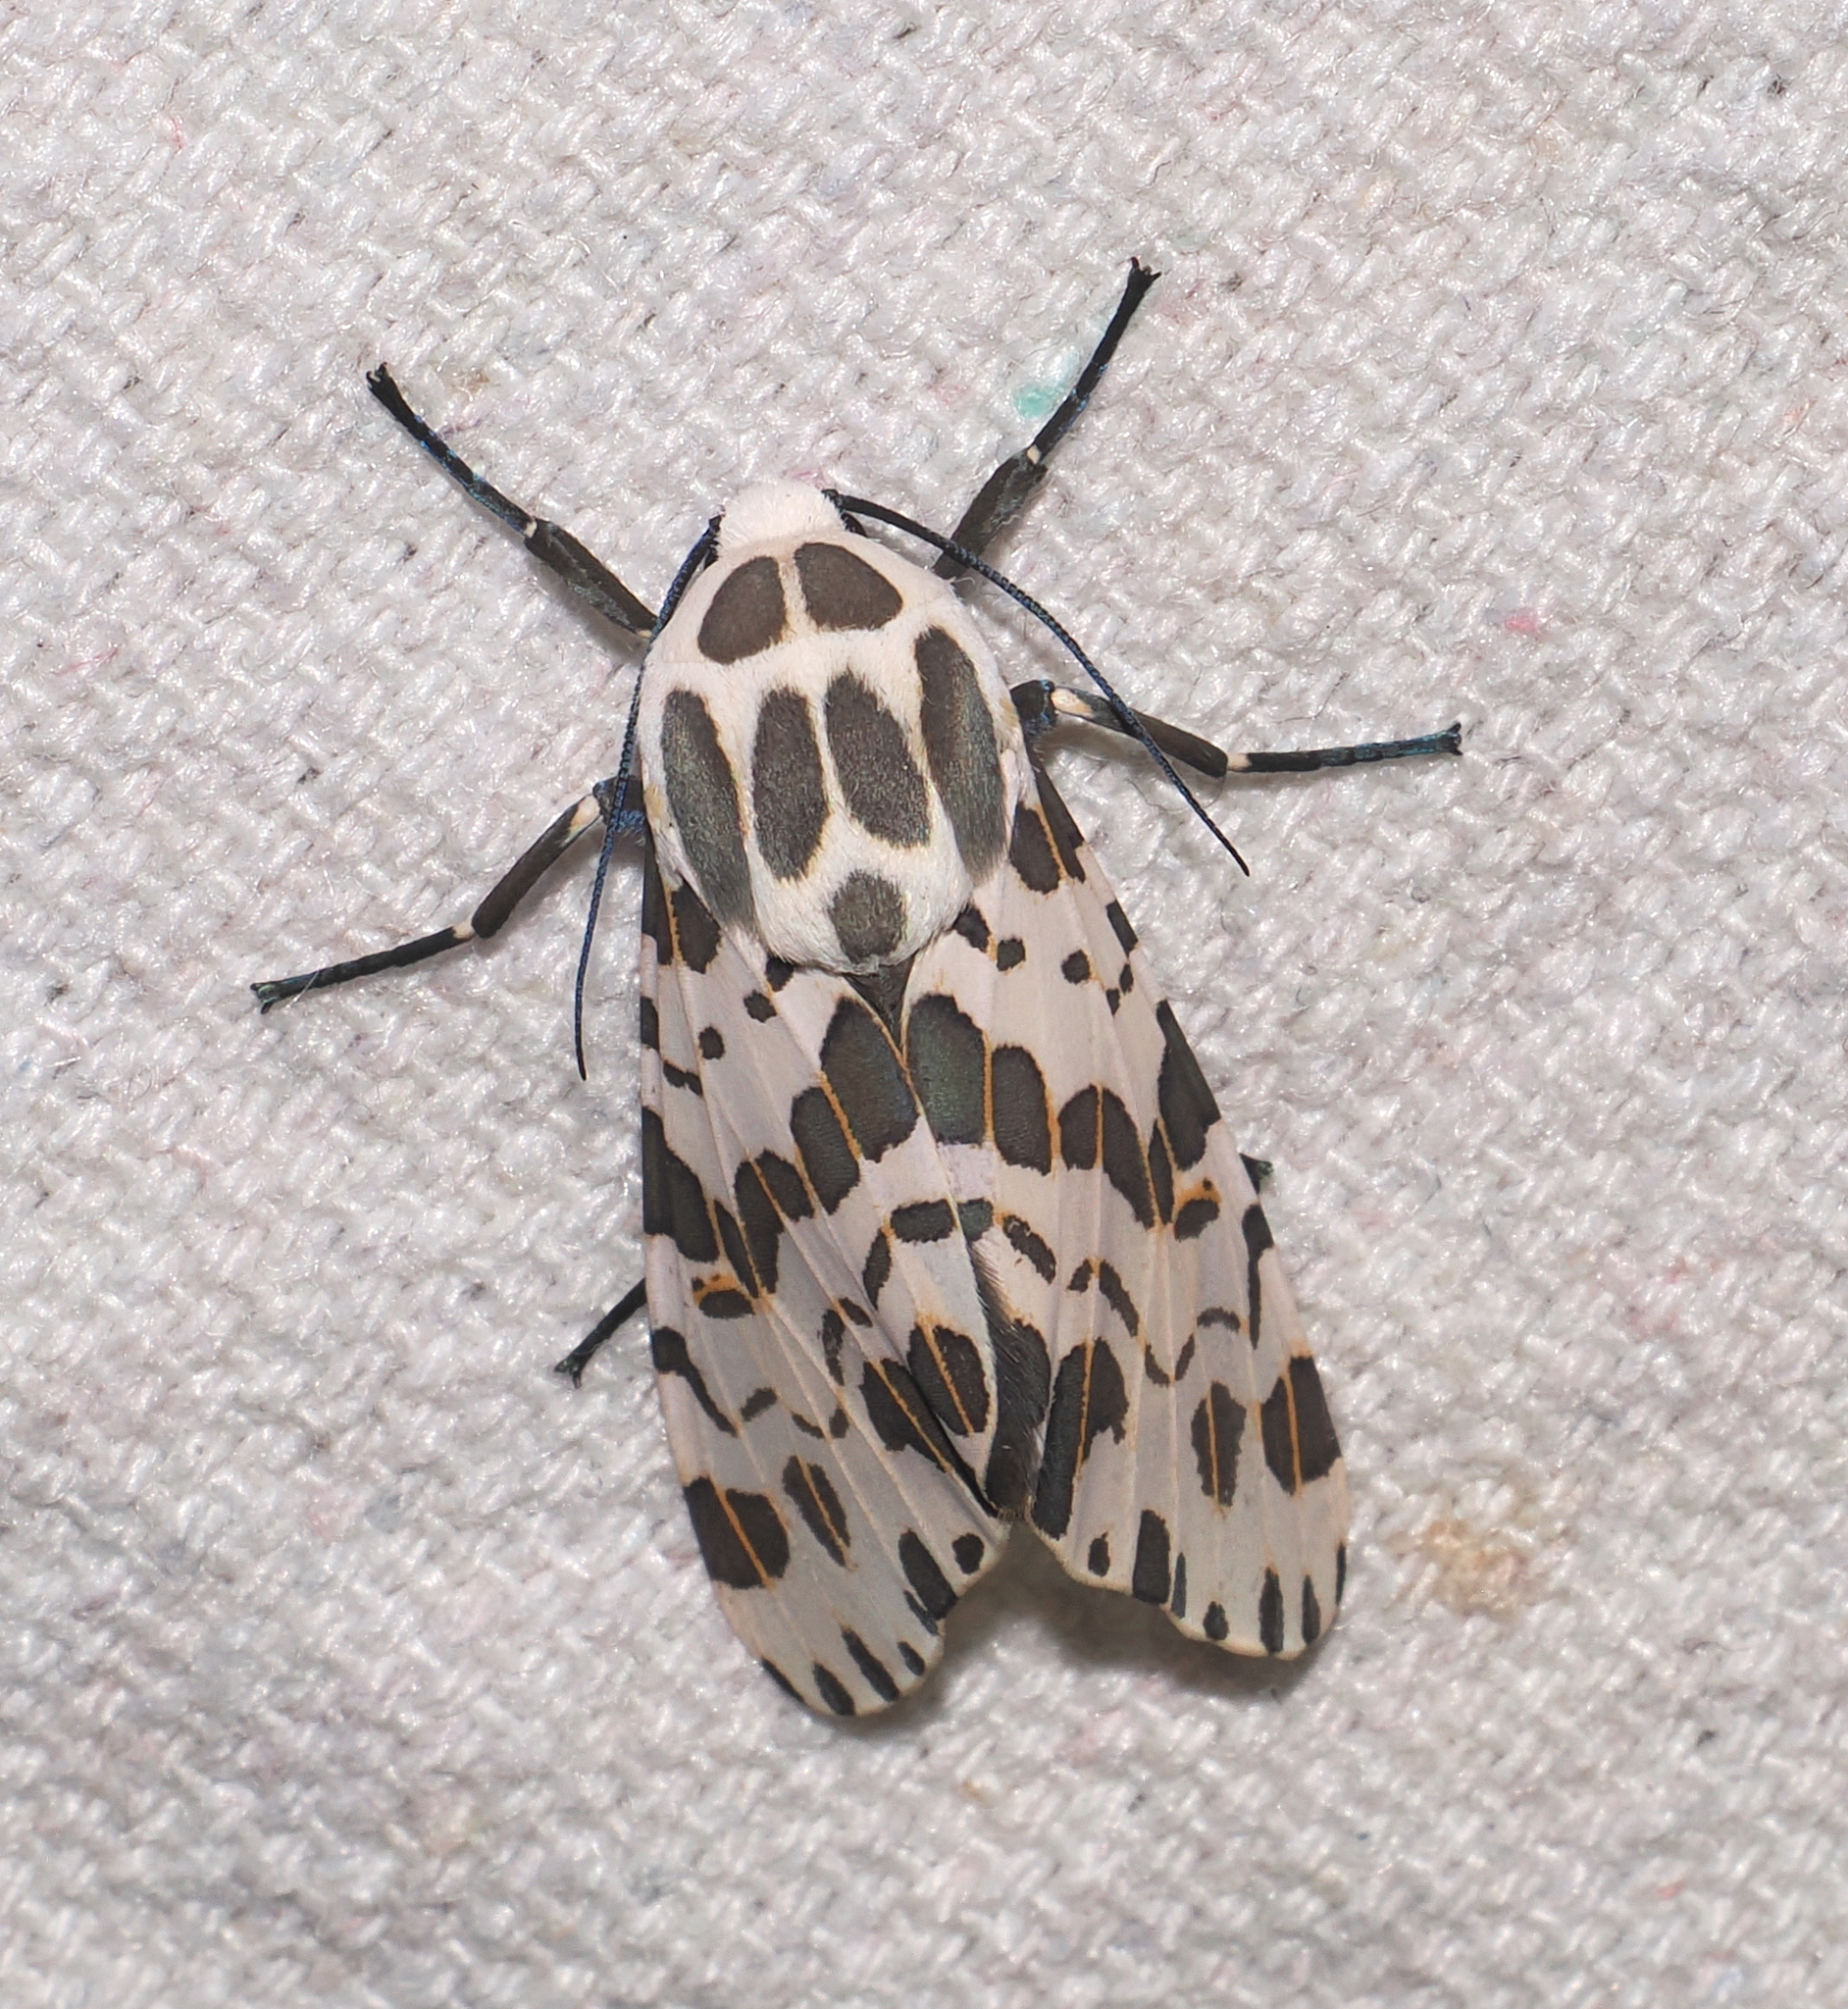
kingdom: Animalia
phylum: Arthropoda
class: Insecta
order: Lepidoptera
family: Erebidae
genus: Hypercompe
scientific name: Hypercompe laeta
